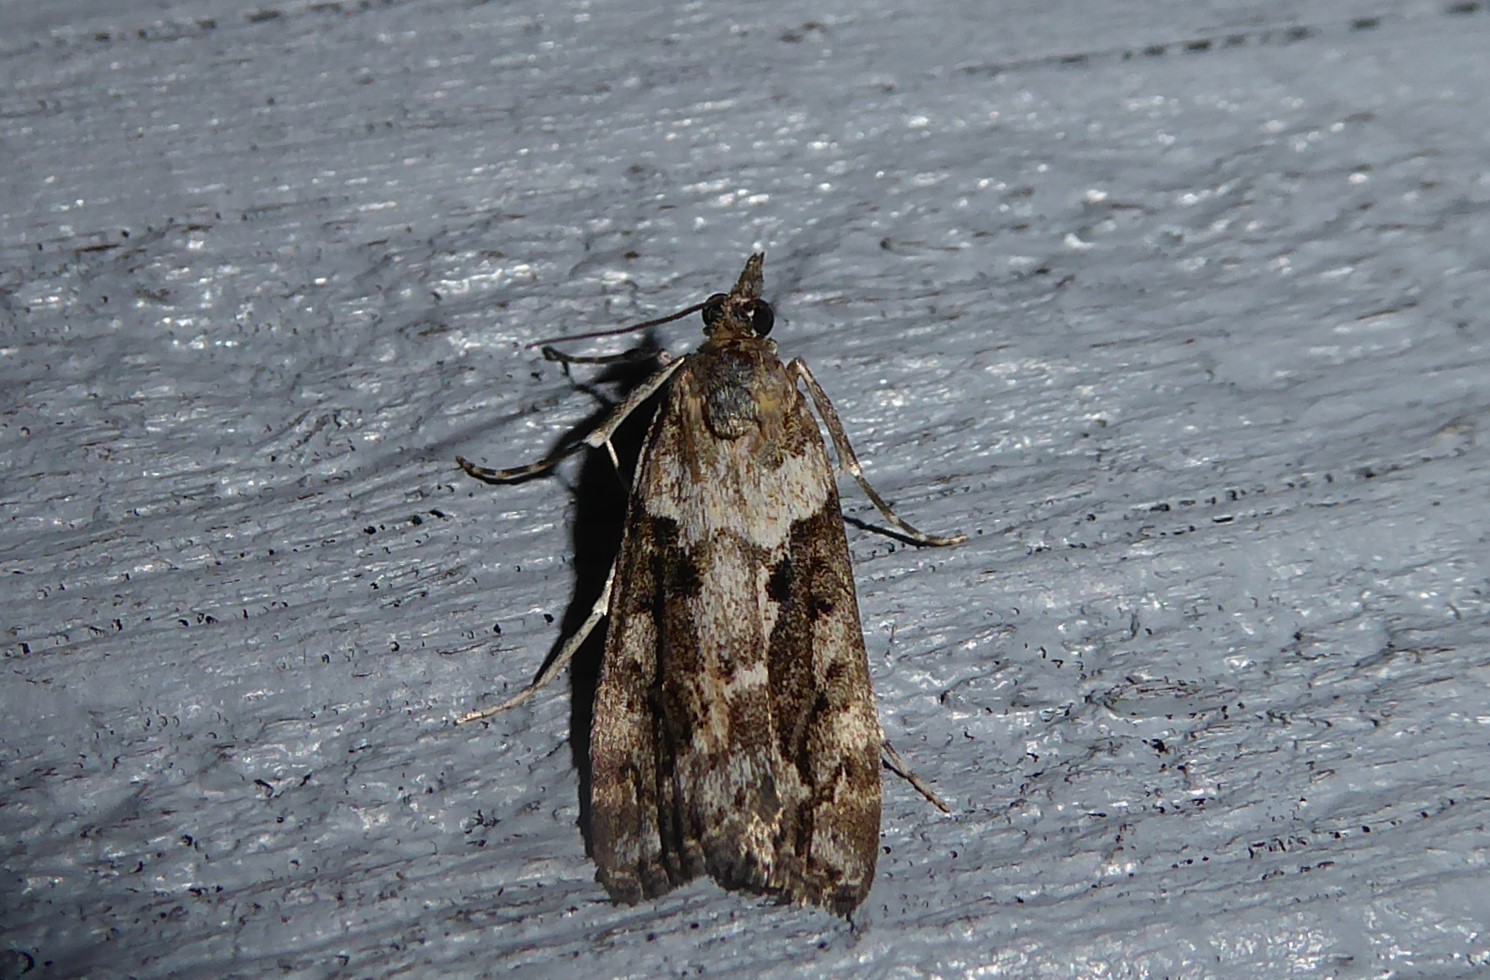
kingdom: Animalia
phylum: Arthropoda
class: Insecta
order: Lepidoptera
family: Crambidae
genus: Eudonia
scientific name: Eudonia submarginalis
